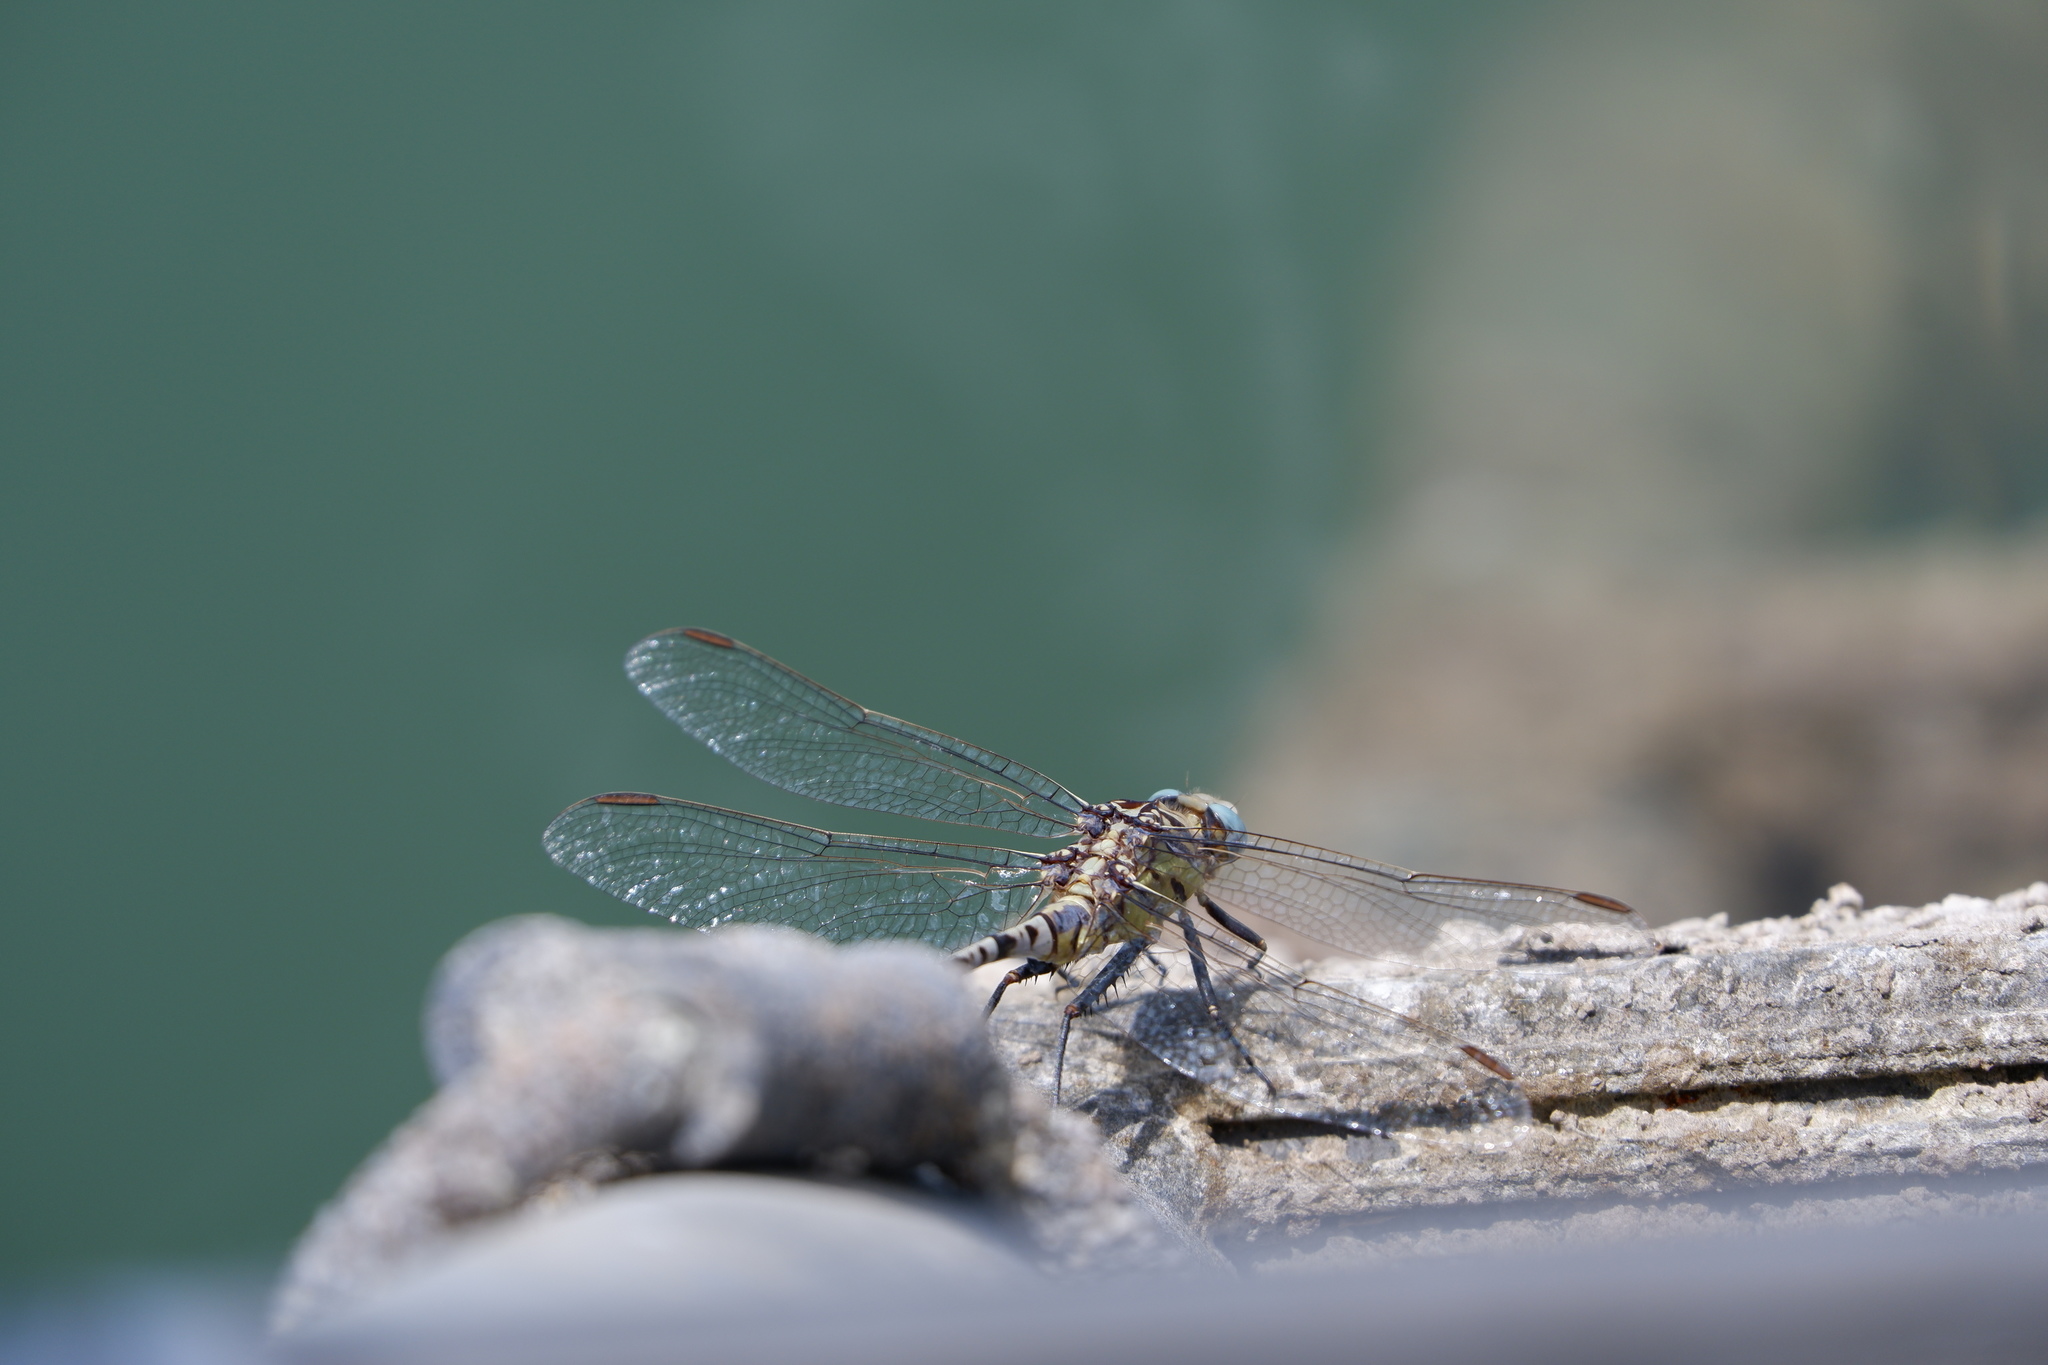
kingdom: Animalia
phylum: Arthropoda
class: Insecta
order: Odonata
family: Gomphidae
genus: Dromogomphus
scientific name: Dromogomphus spoliatus
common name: Flag-tailed spinyleg
